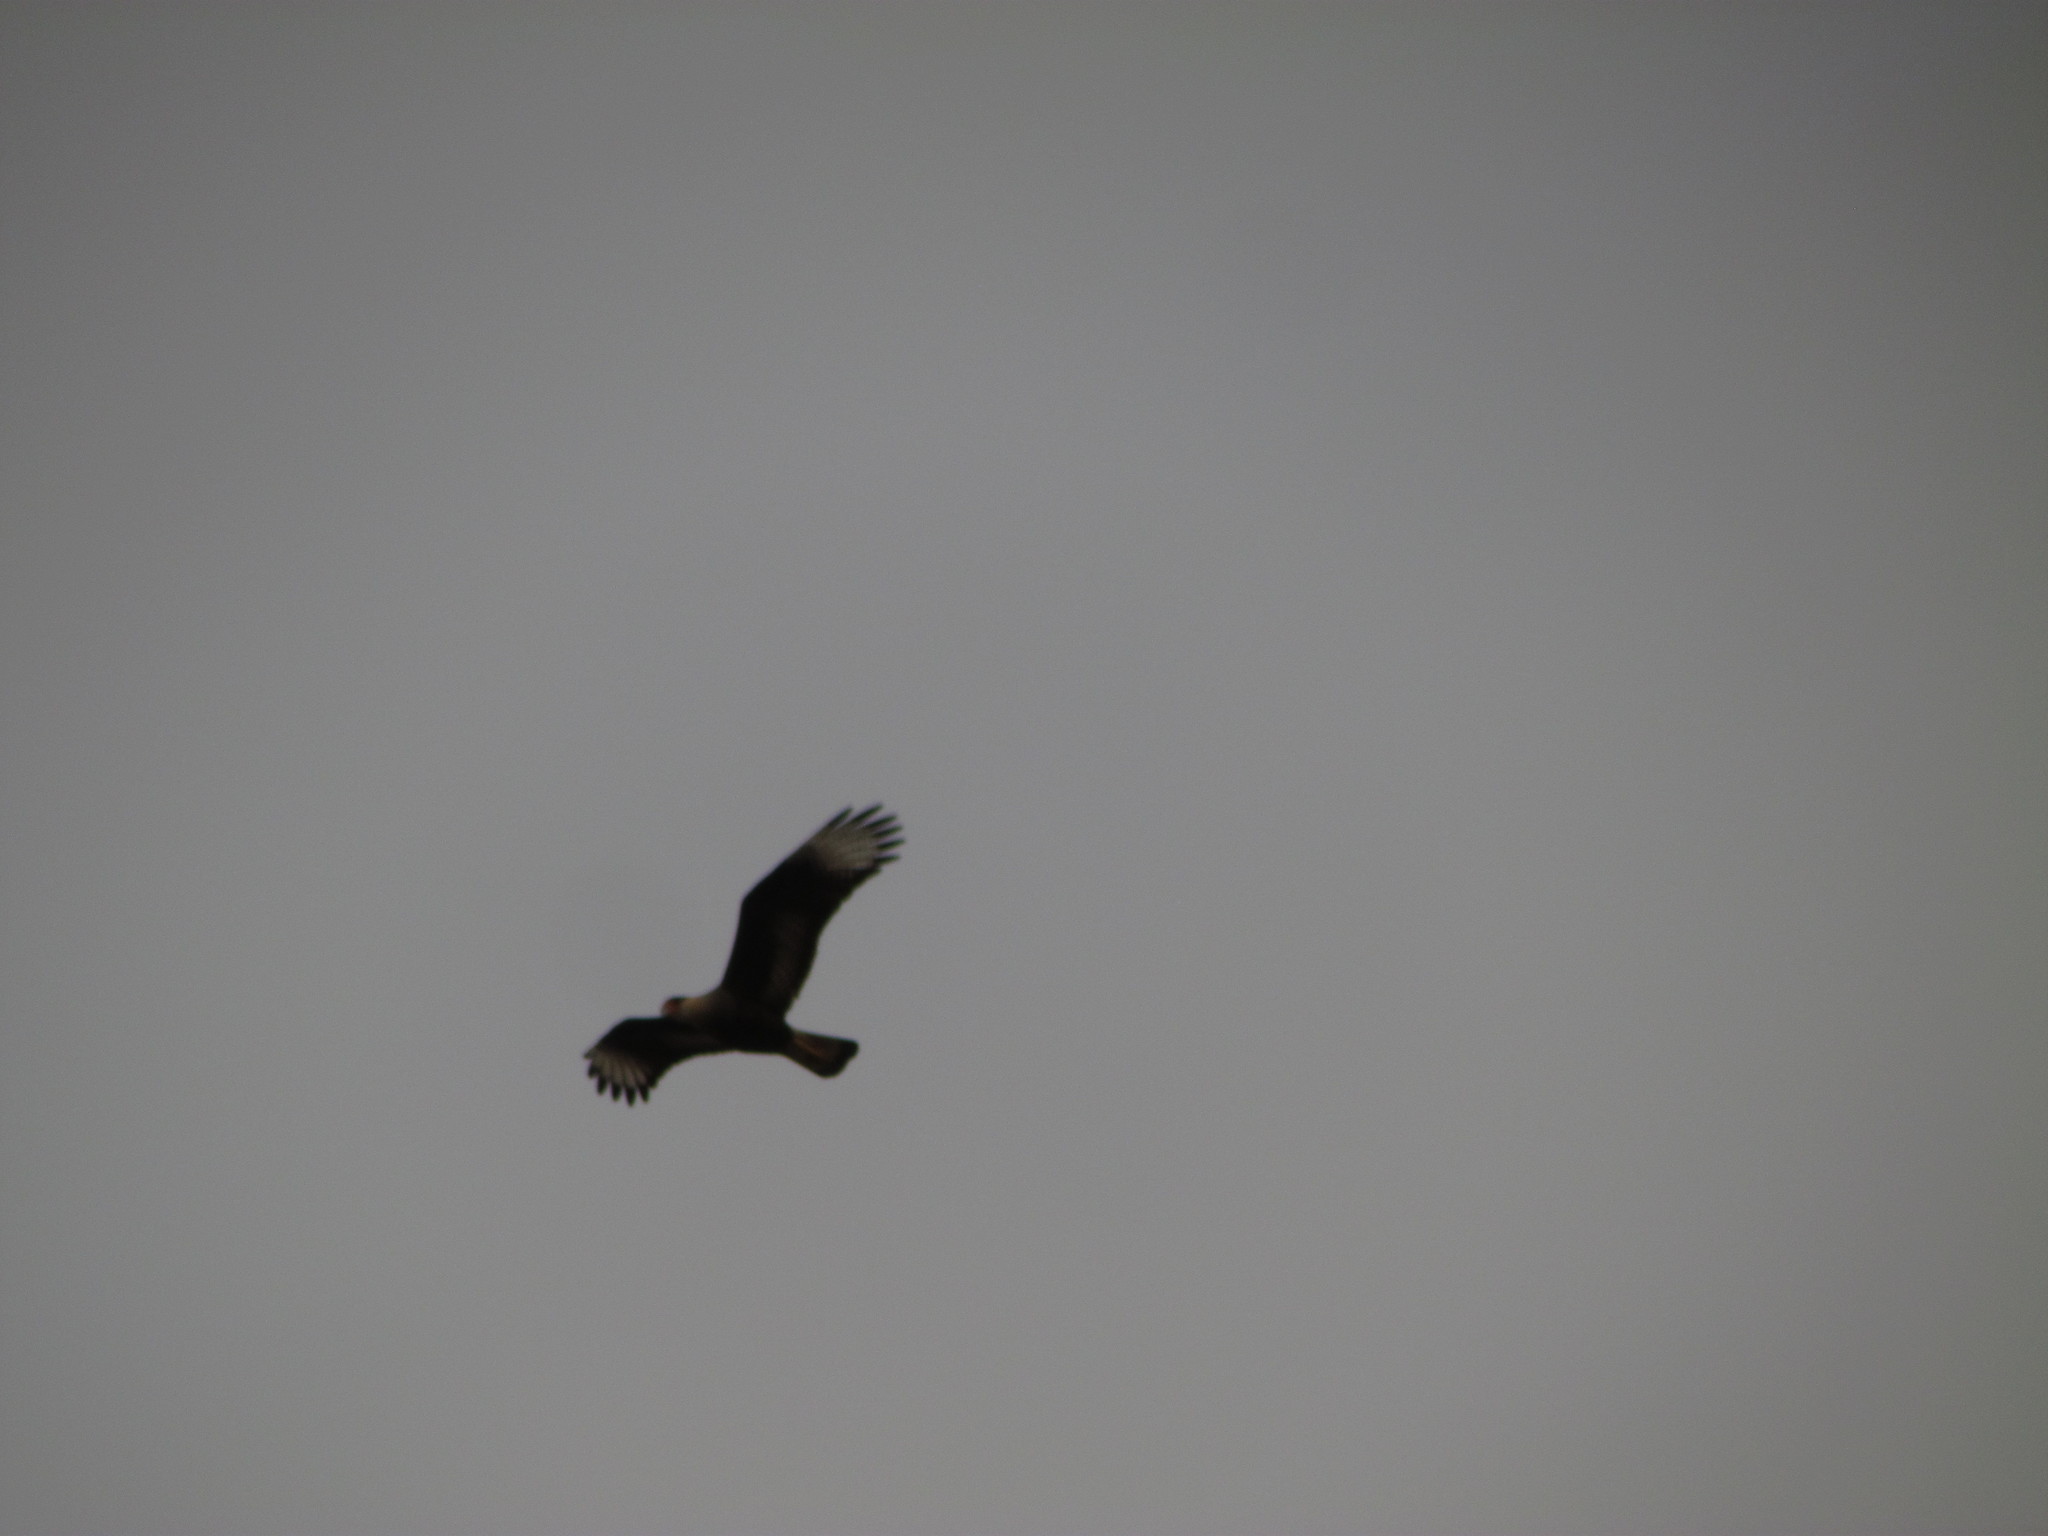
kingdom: Animalia
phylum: Chordata
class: Aves
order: Falconiformes
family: Falconidae
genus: Caracara
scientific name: Caracara plancus
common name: Southern caracara
